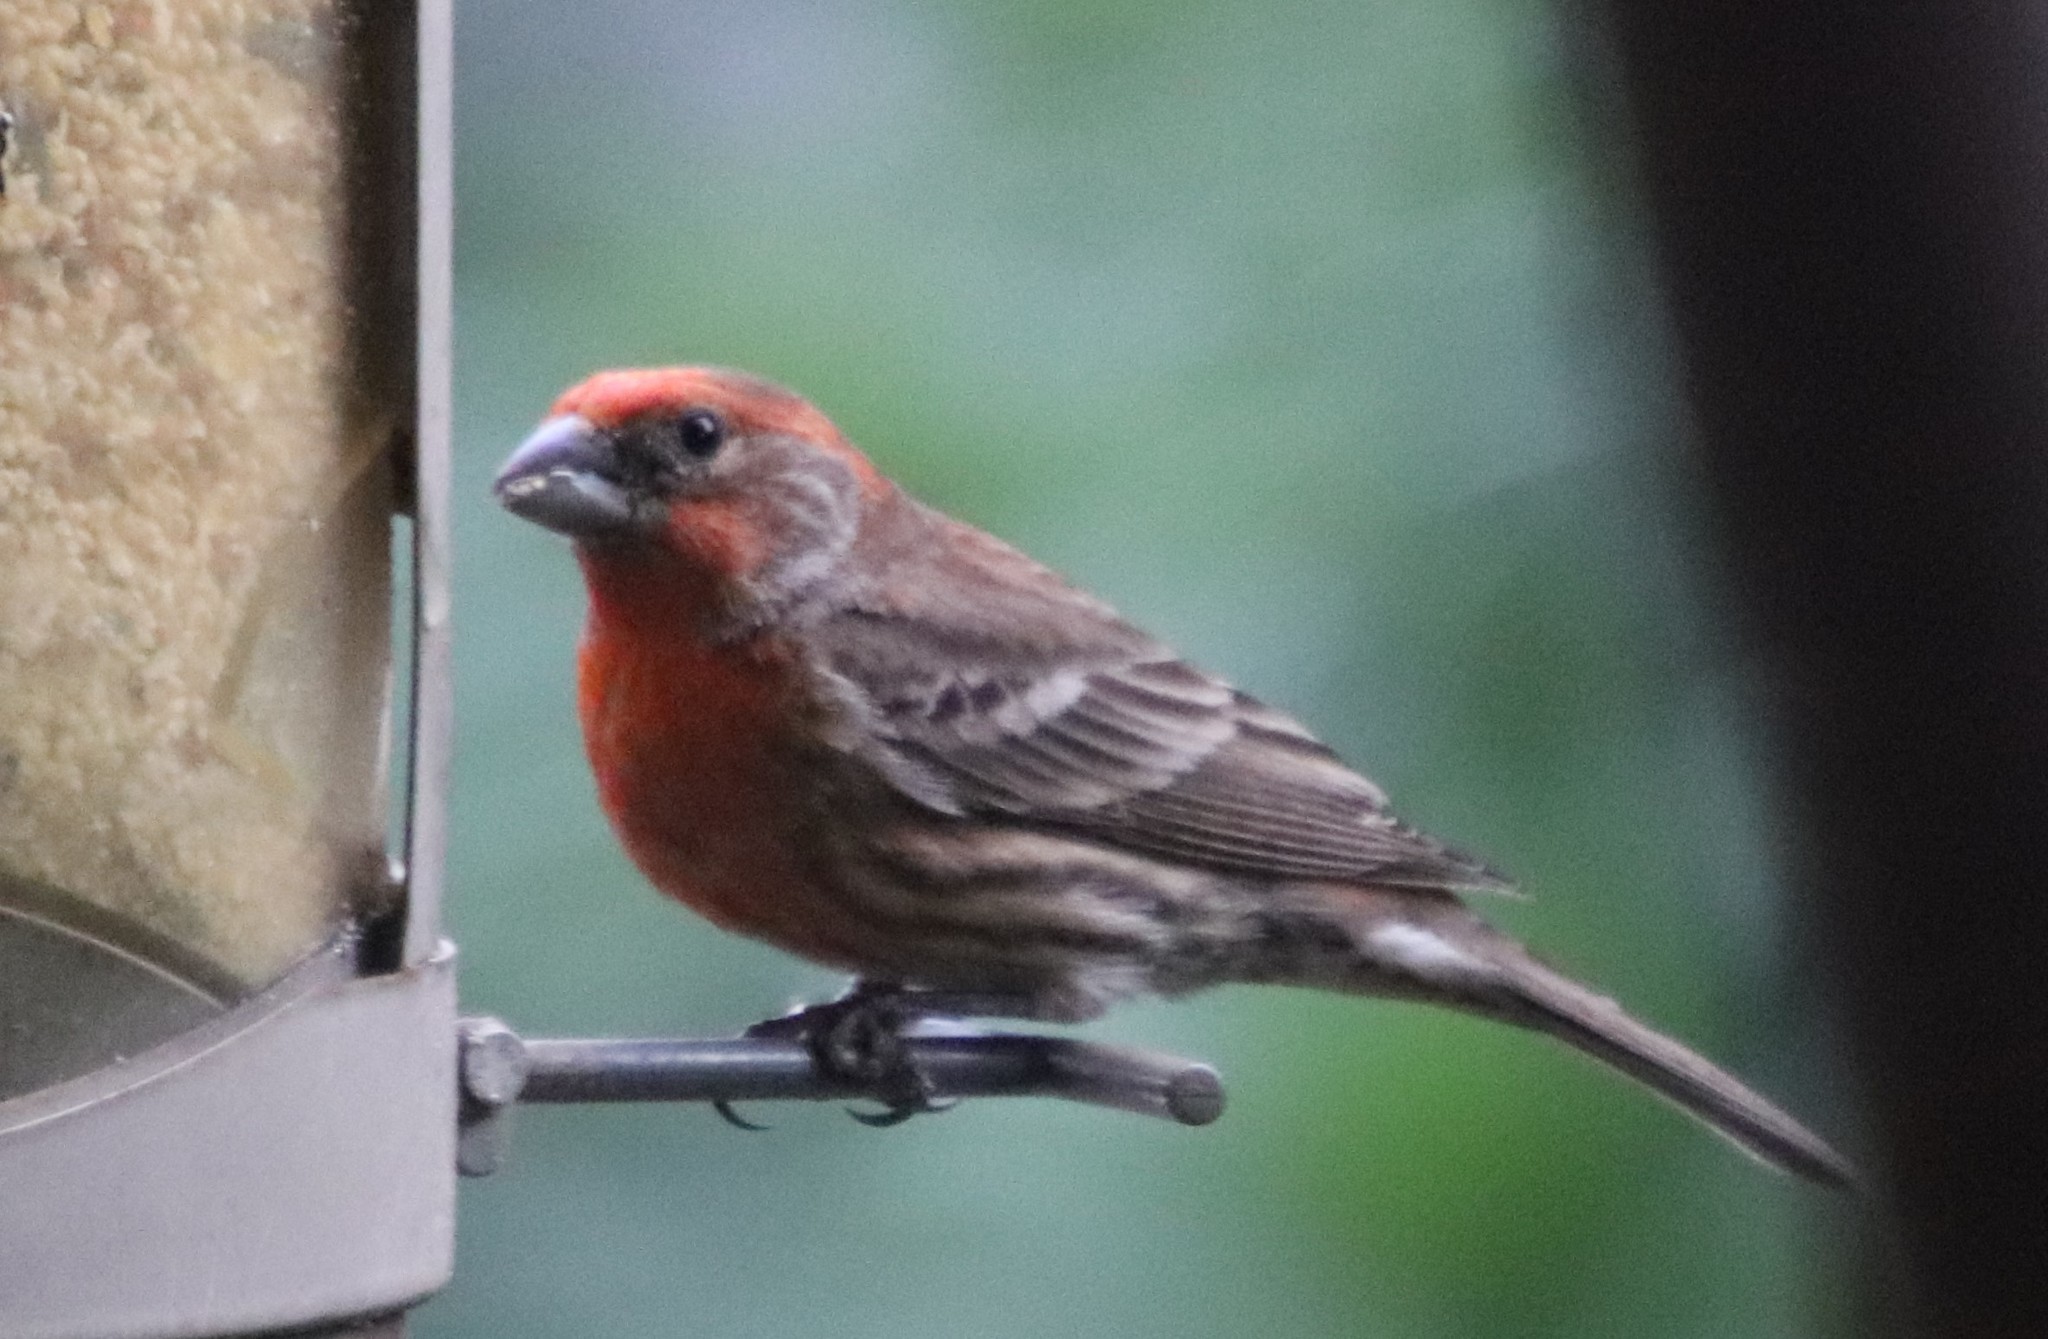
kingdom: Animalia
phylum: Chordata
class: Aves
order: Passeriformes
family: Fringillidae
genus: Haemorhous
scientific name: Haemorhous mexicanus
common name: House finch
